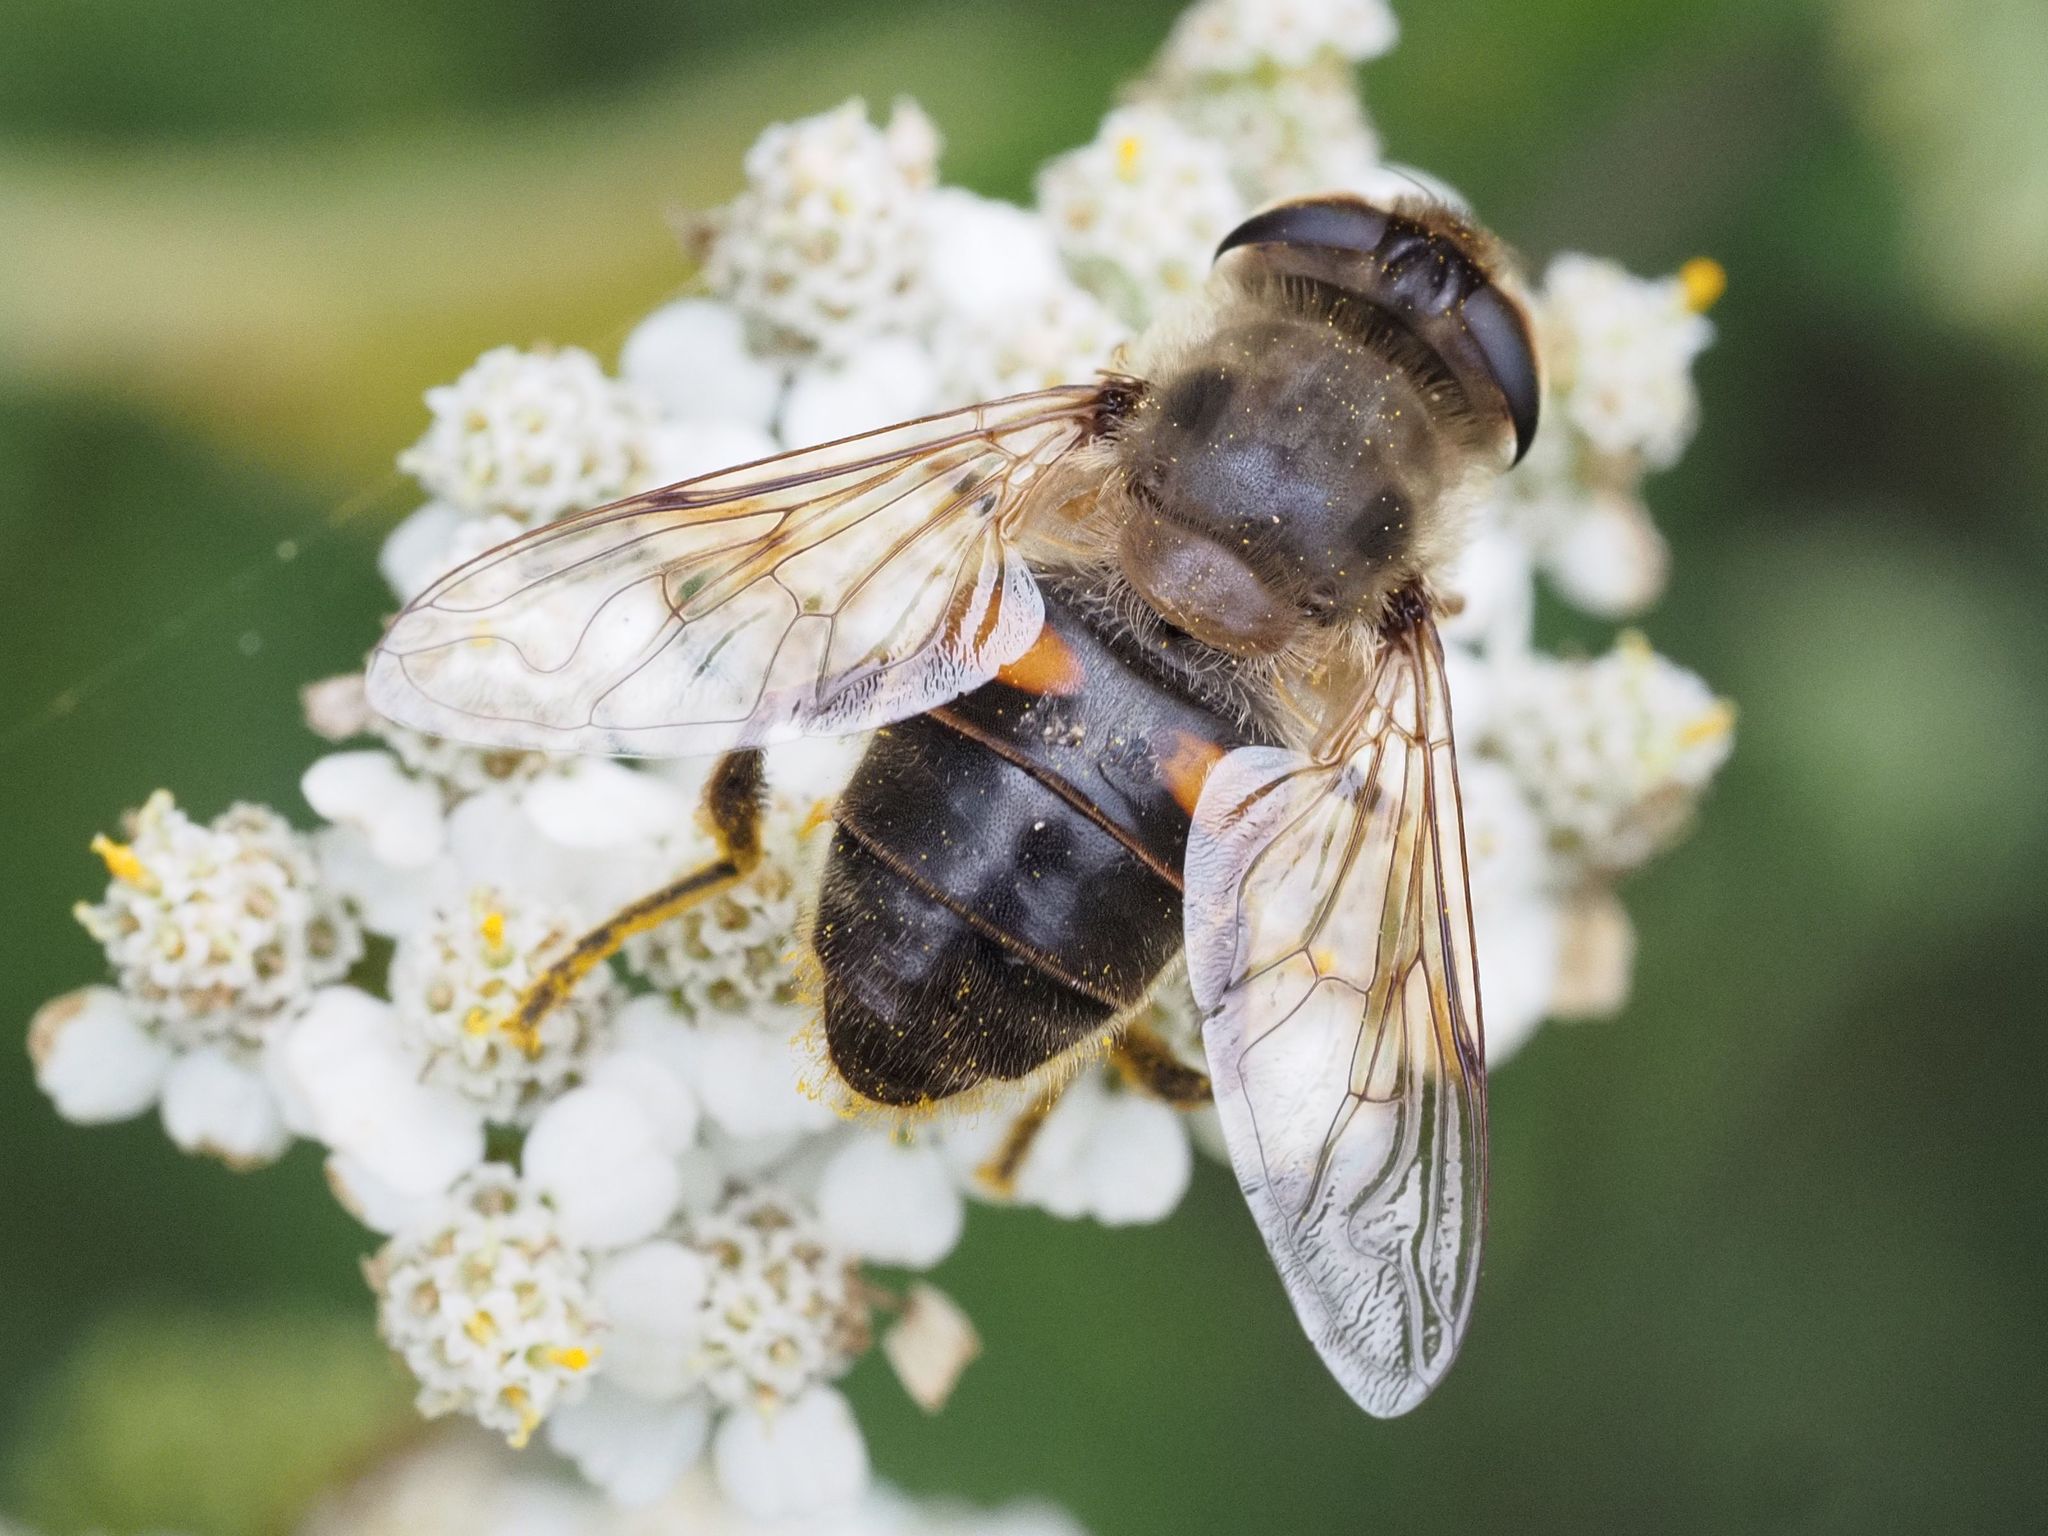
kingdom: Animalia
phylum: Arthropoda
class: Insecta
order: Diptera
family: Syrphidae
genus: Eristalis
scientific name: Eristalis tenax
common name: Drone fly
